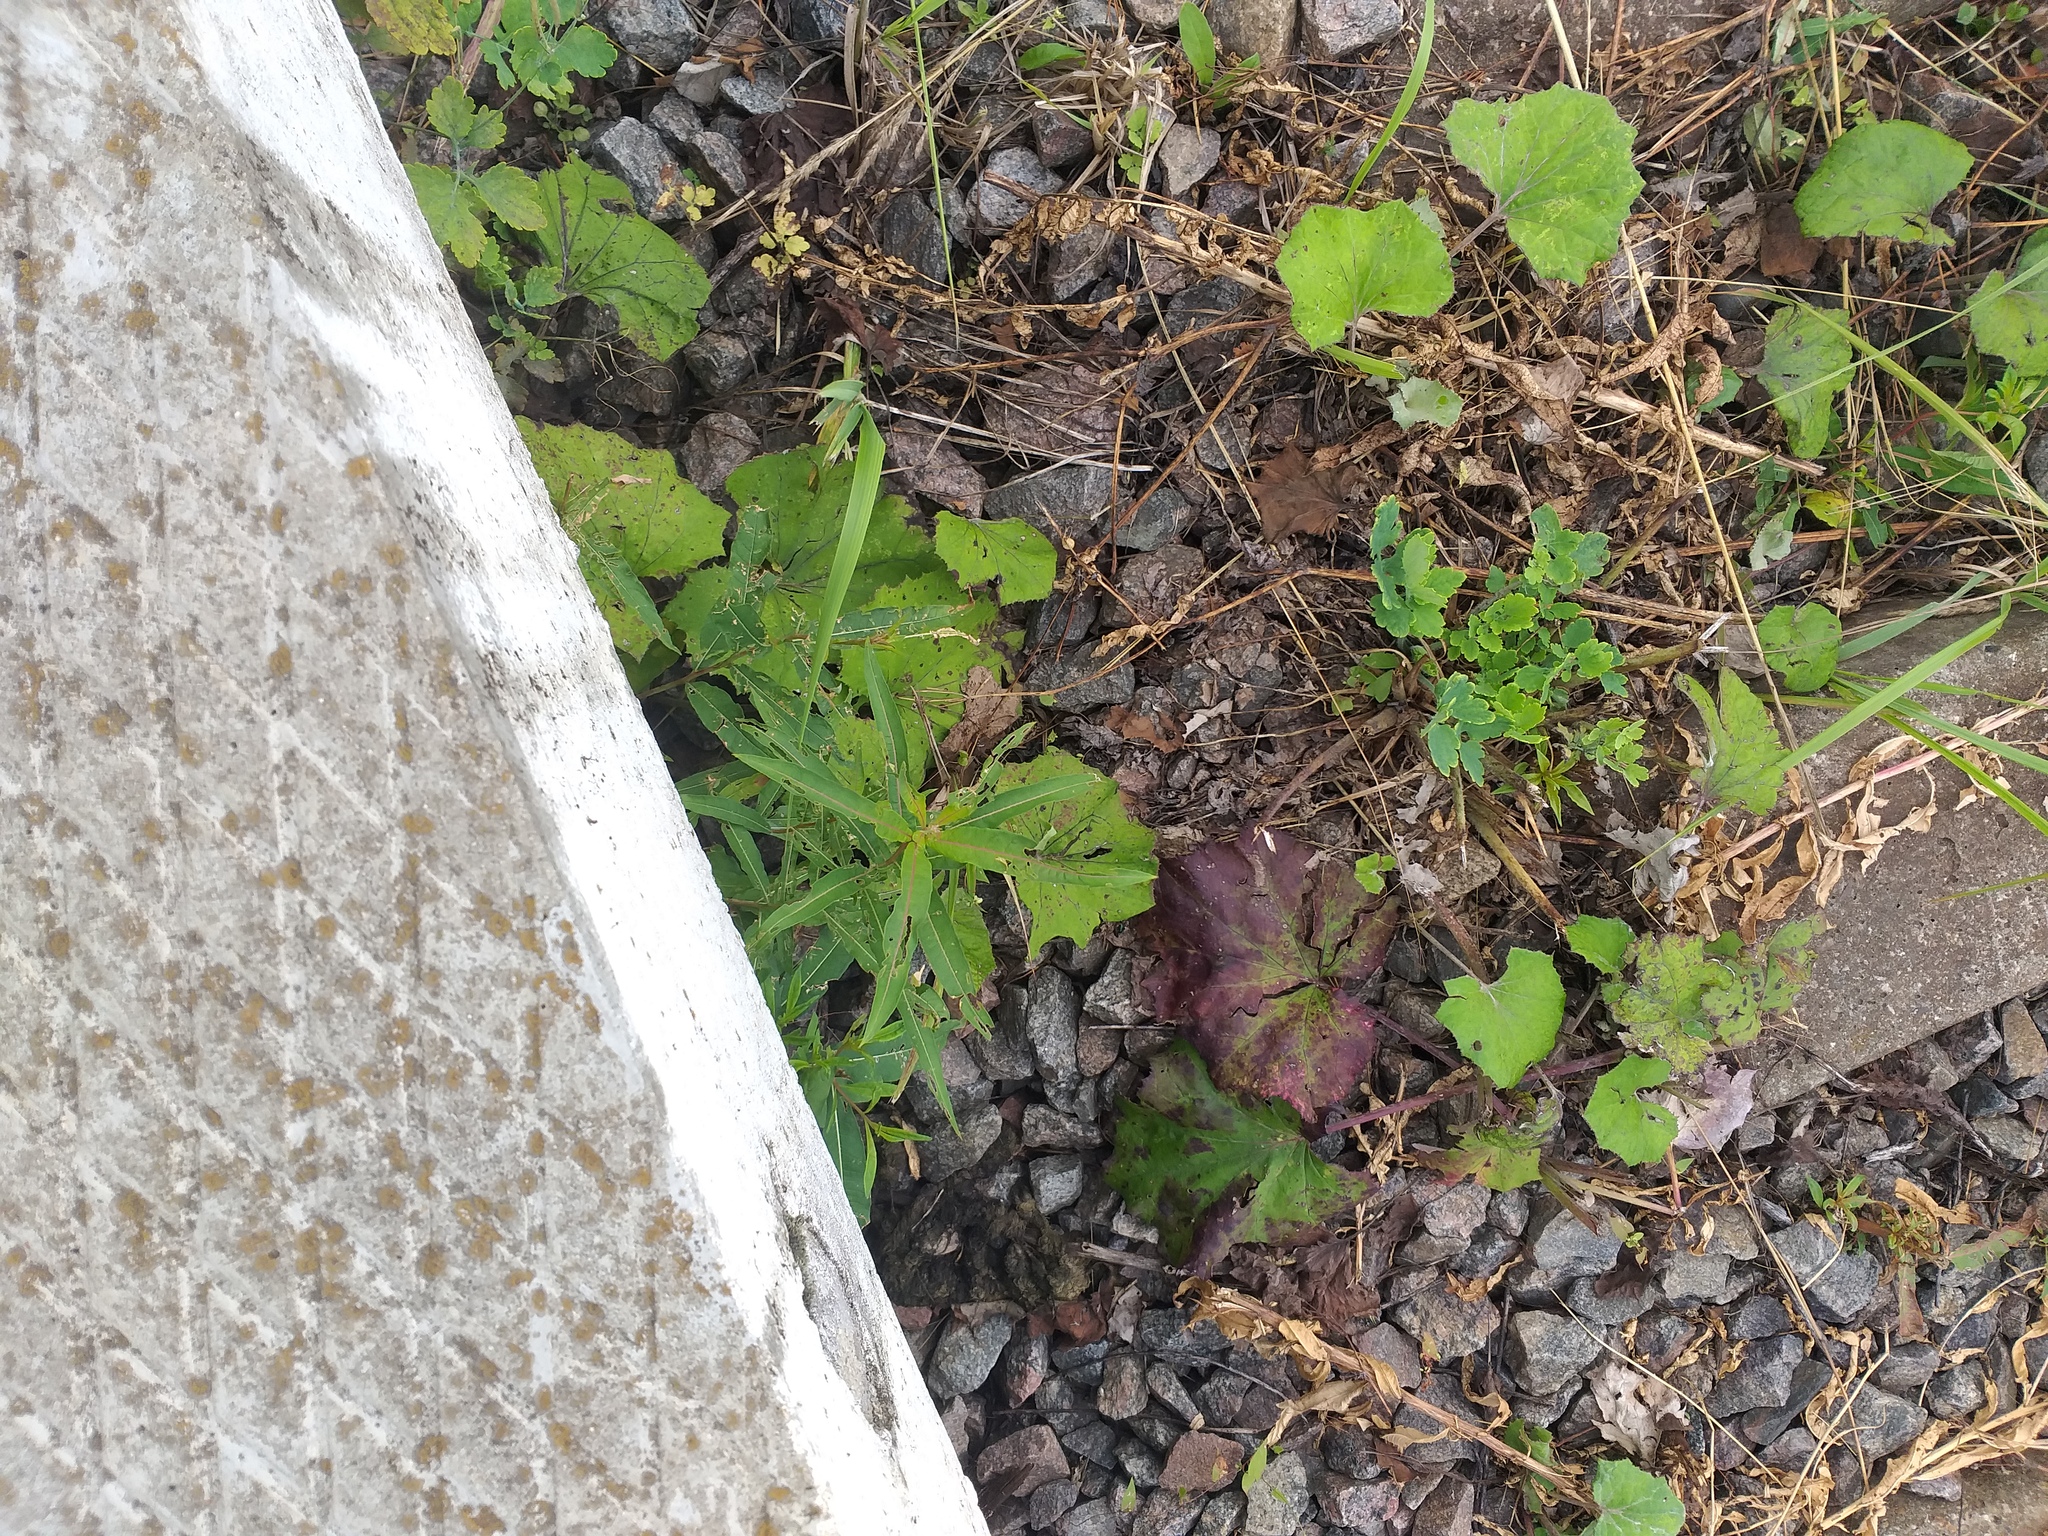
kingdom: Plantae
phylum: Tracheophyta
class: Magnoliopsida
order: Myrtales
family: Onagraceae
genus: Chamaenerion
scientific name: Chamaenerion angustifolium
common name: Fireweed
